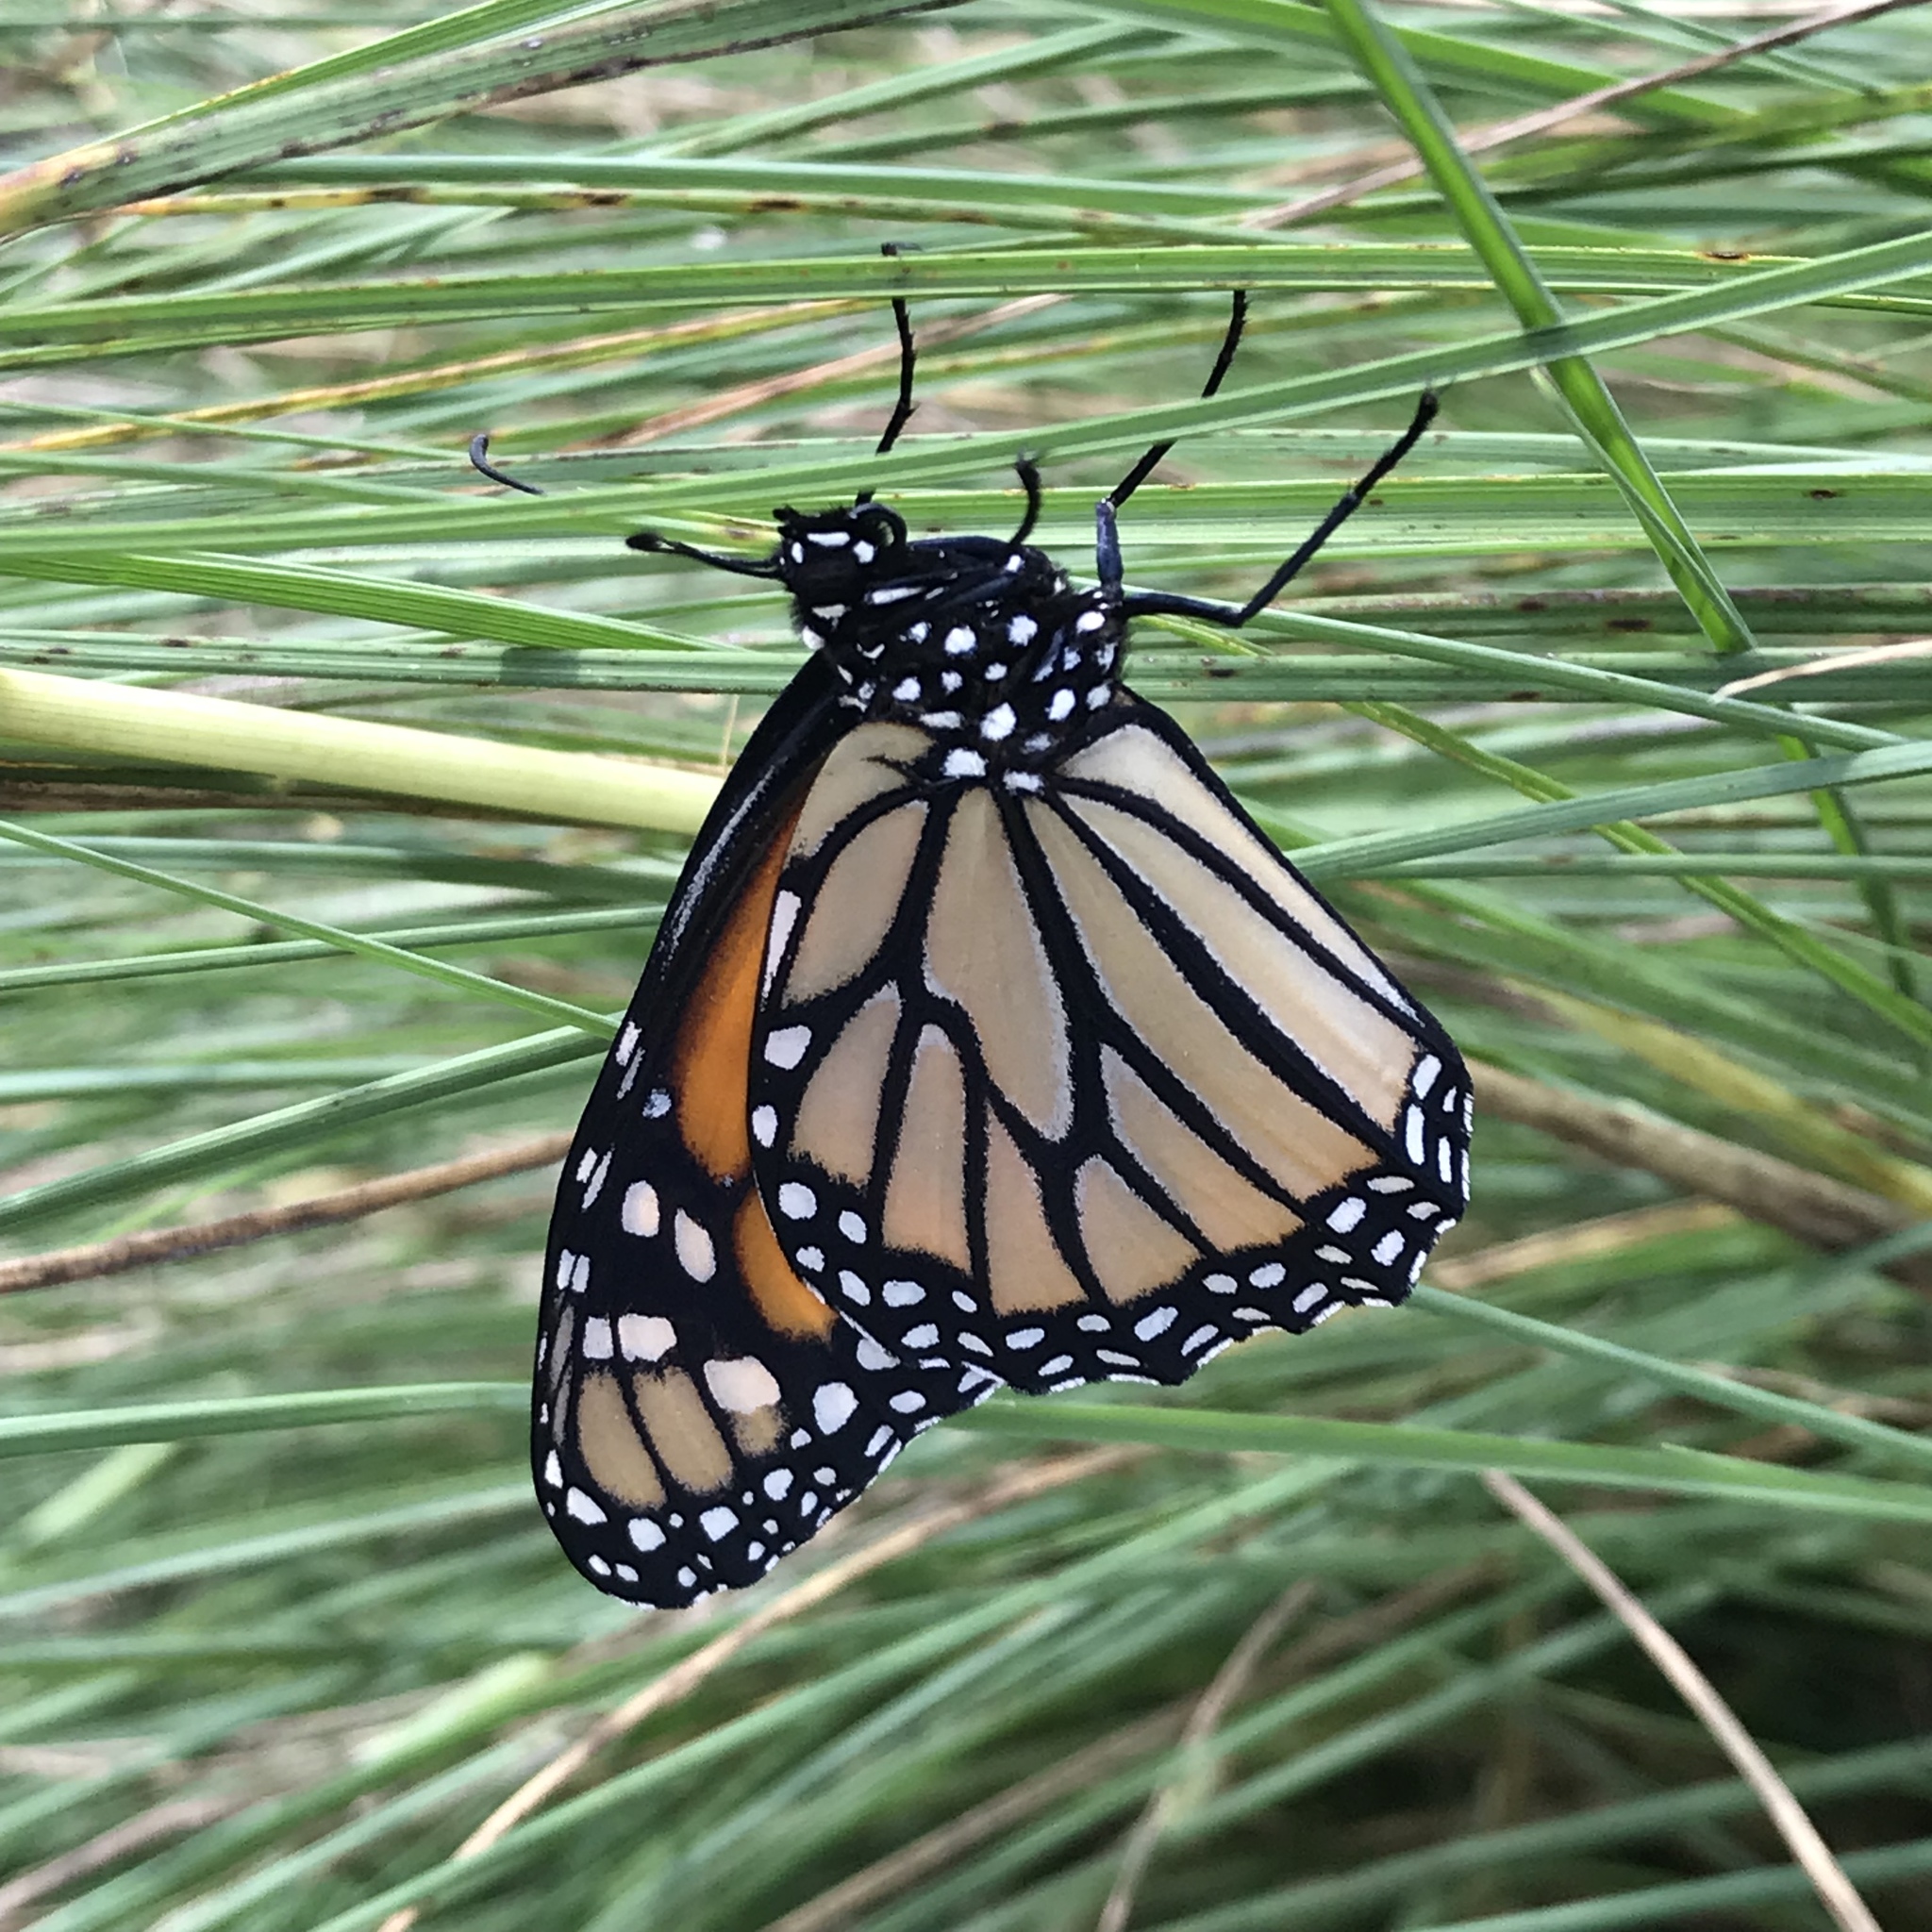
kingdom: Animalia
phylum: Arthropoda
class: Insecta
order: Lepidoptera
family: Nymphalidae
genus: Danaus
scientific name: Danaus plexippus
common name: Monarch
